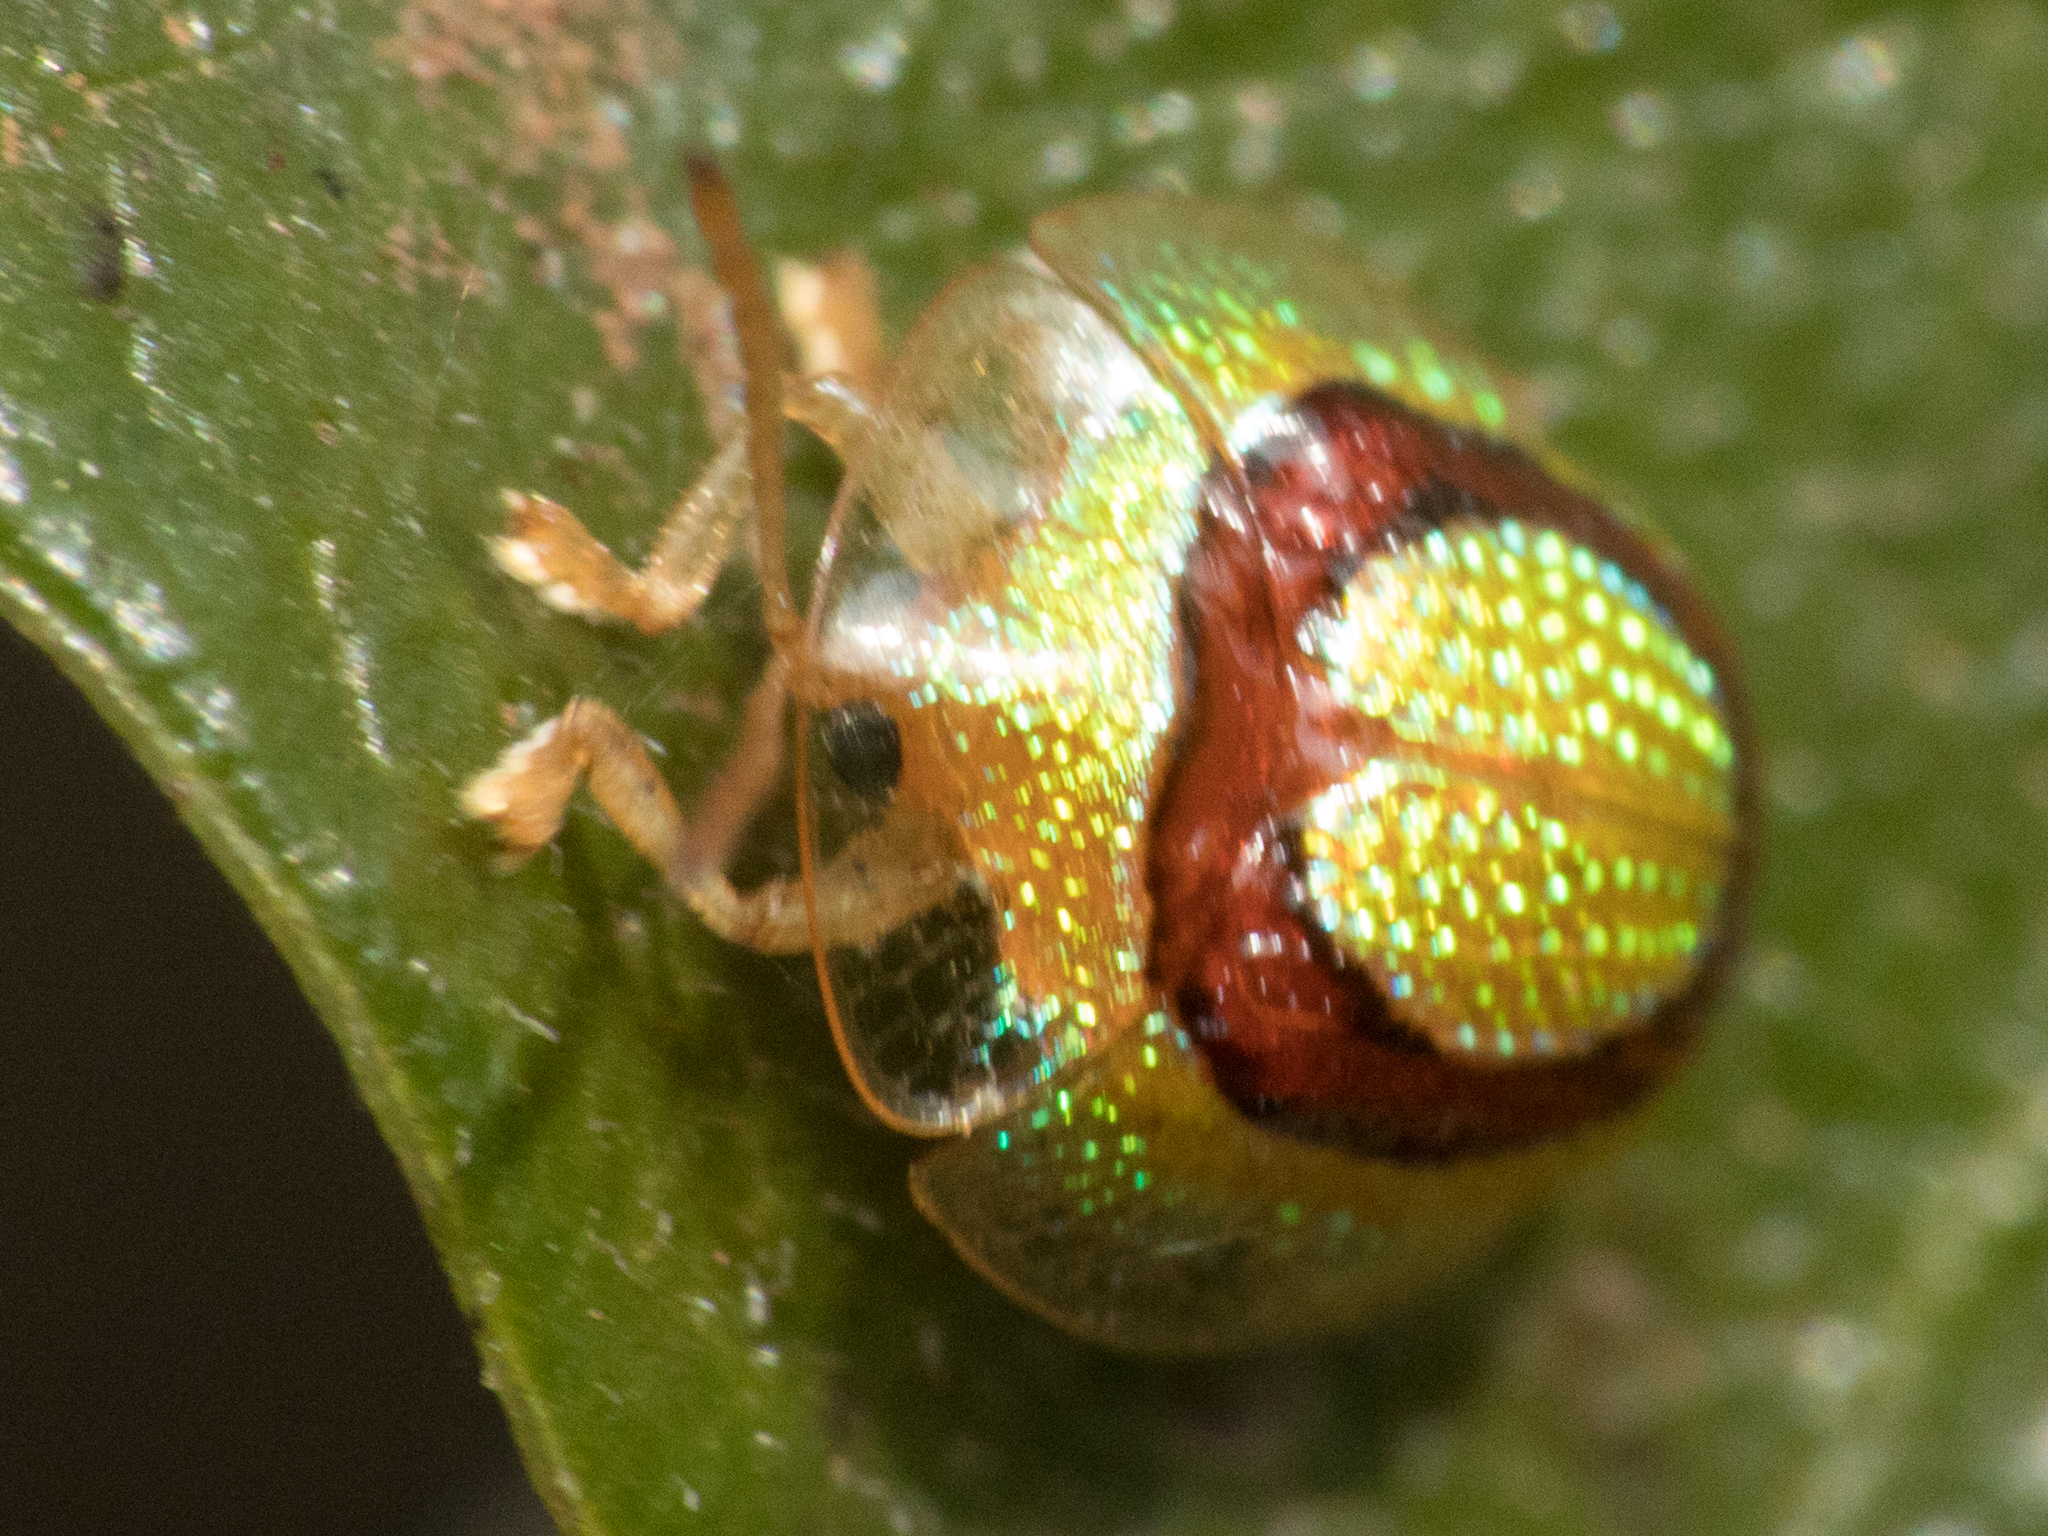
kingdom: Animalia
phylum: Arthropoda
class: Insecta
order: Coleoptera
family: Chrysomelidae
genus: Charidotis
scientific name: Charidotis abrupta
